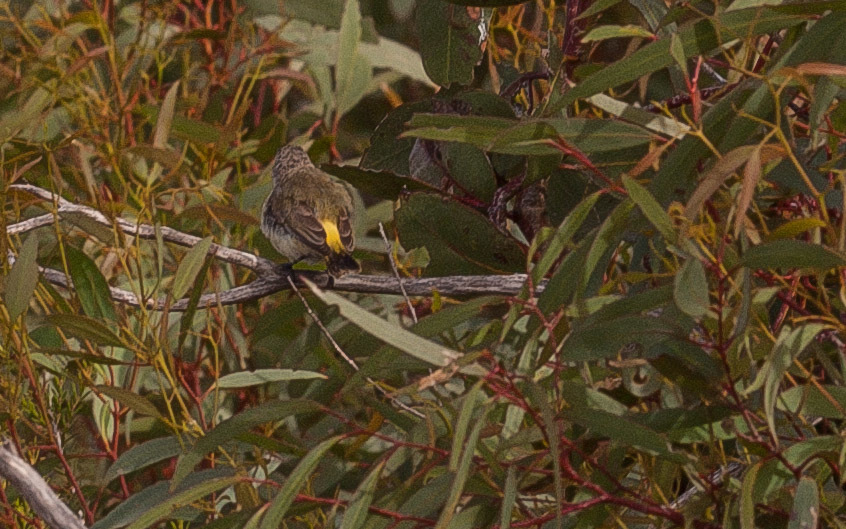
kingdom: Animalia
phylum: Chordata
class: Aves
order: Passeriformes
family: Acanthizidae
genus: Acanthiza
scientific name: Acanthiza chrysorrhoa
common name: Yellow-rumped thornbill
